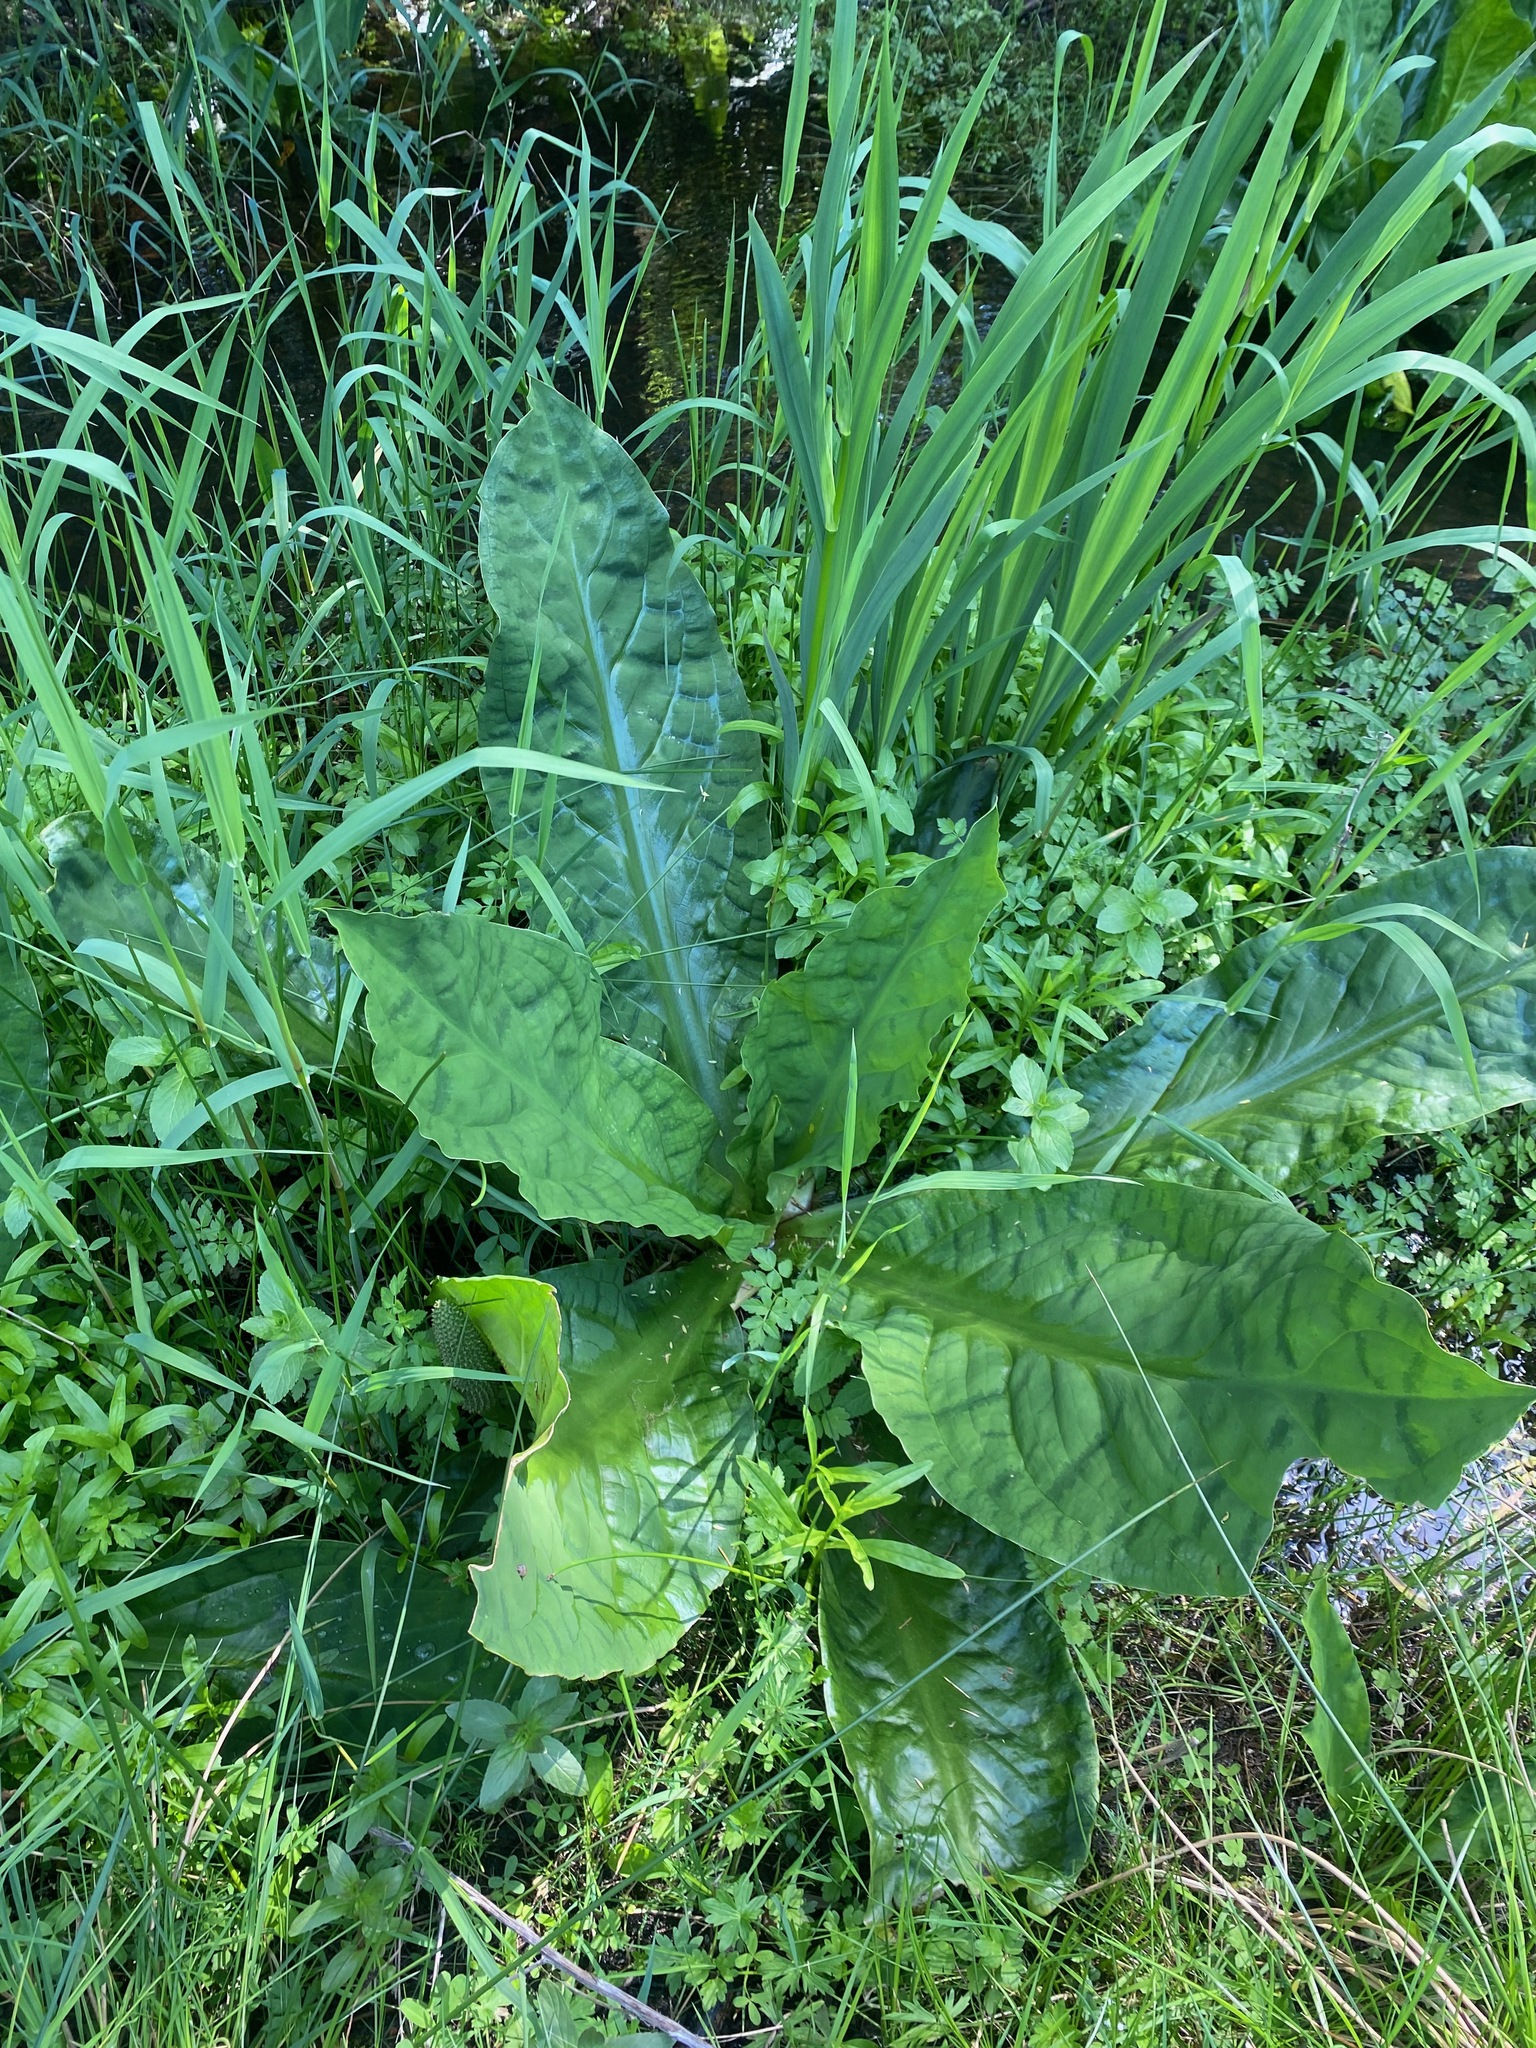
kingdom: Plantae
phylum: Tracheophyta
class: Liliopsida
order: Alismatales
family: Araceae
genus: Lysichiton
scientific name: Lysichiton americanus
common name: American skunk cabbage
